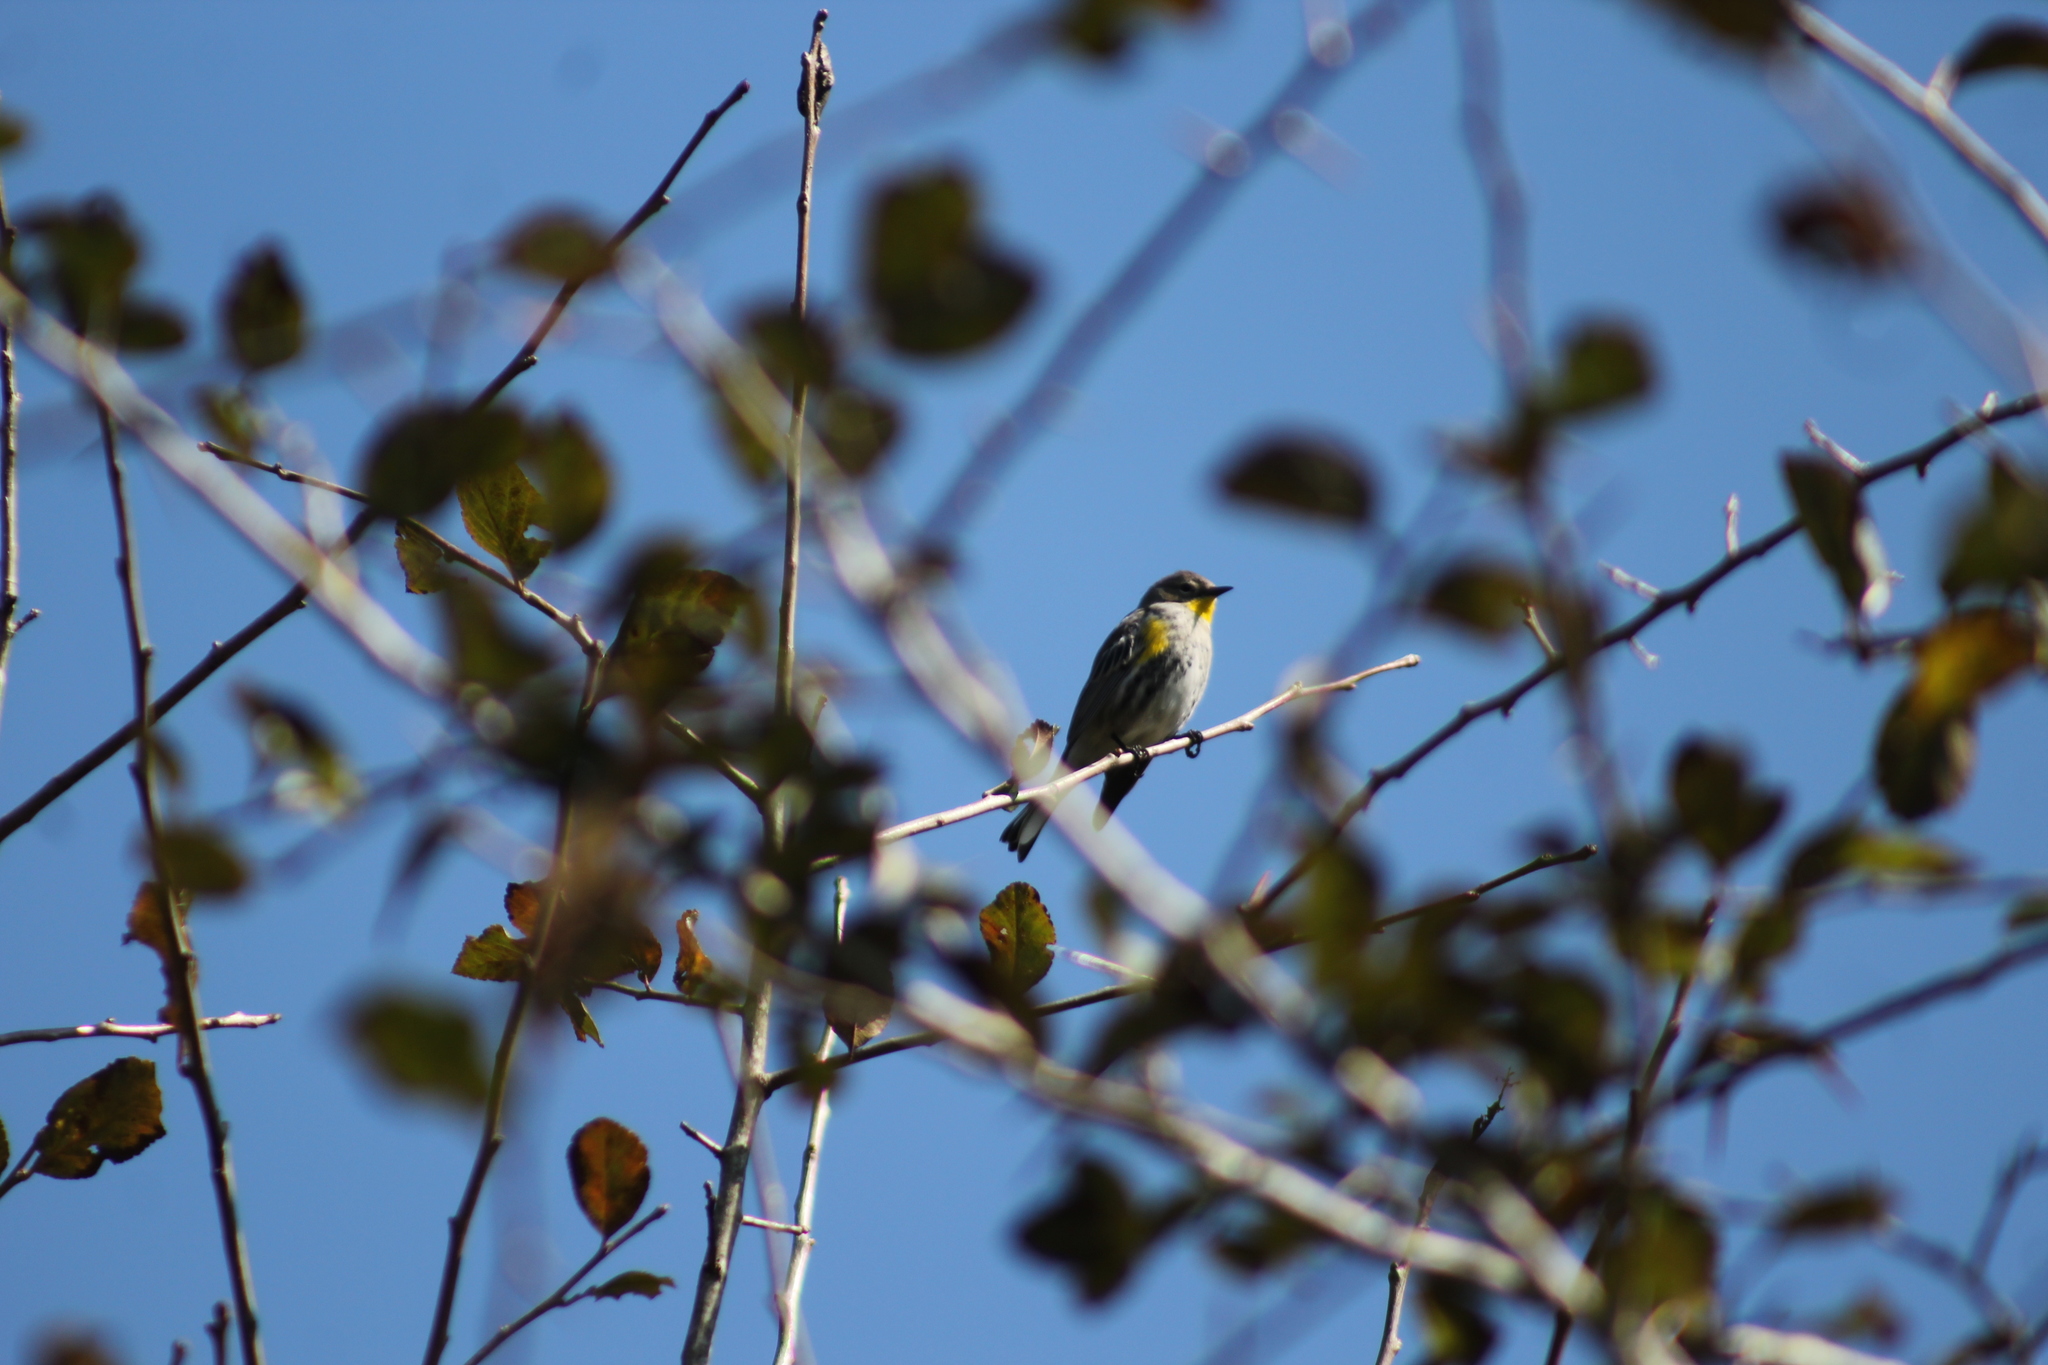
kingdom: Animalia
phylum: Chordata
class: Aves
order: Passeriformes
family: Parulidae
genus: Setophaga
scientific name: Setophaga auduboni
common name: Audubon's warbler
